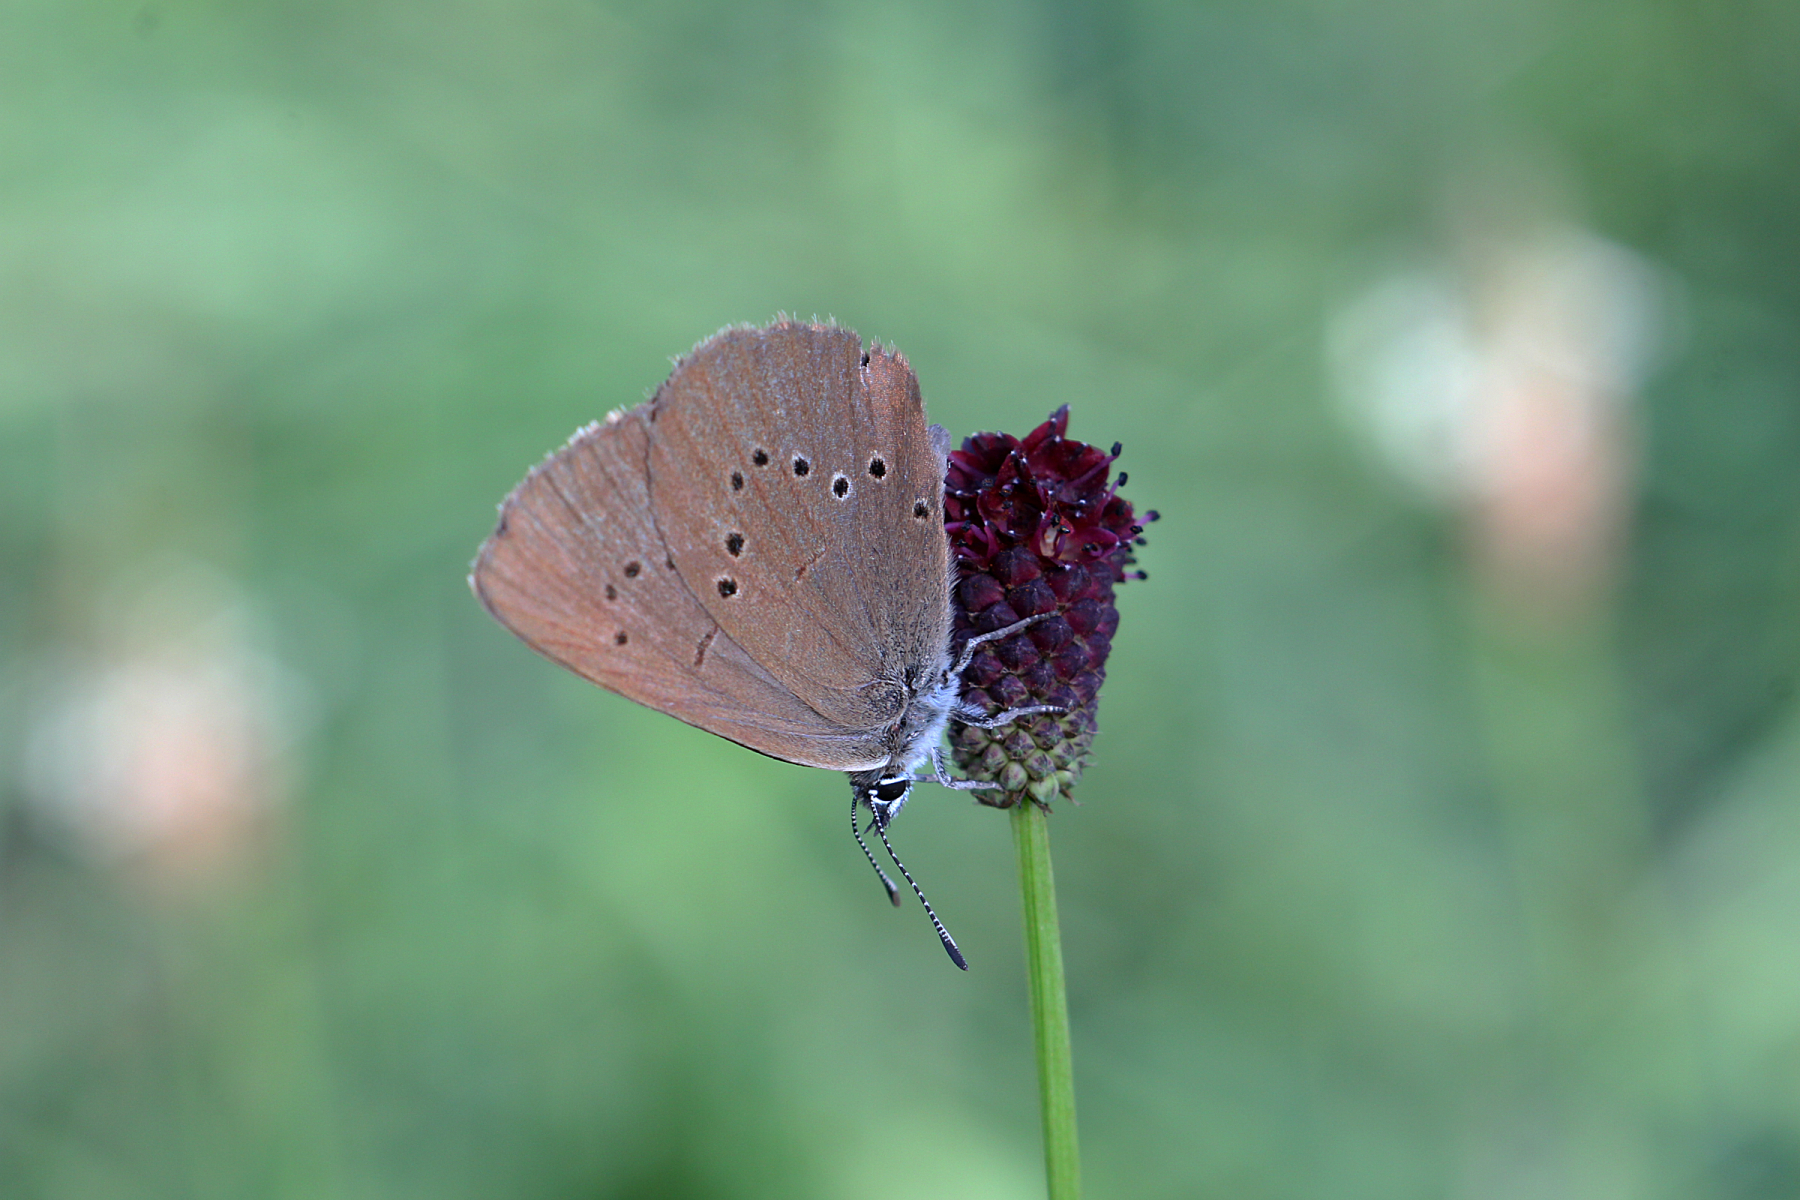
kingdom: Animalia
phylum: Arthropoda
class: Insecta
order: Lepidoptera
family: Lycaenidae
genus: Maculinea
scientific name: Maculinea nausithous
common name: Dusky large blue
